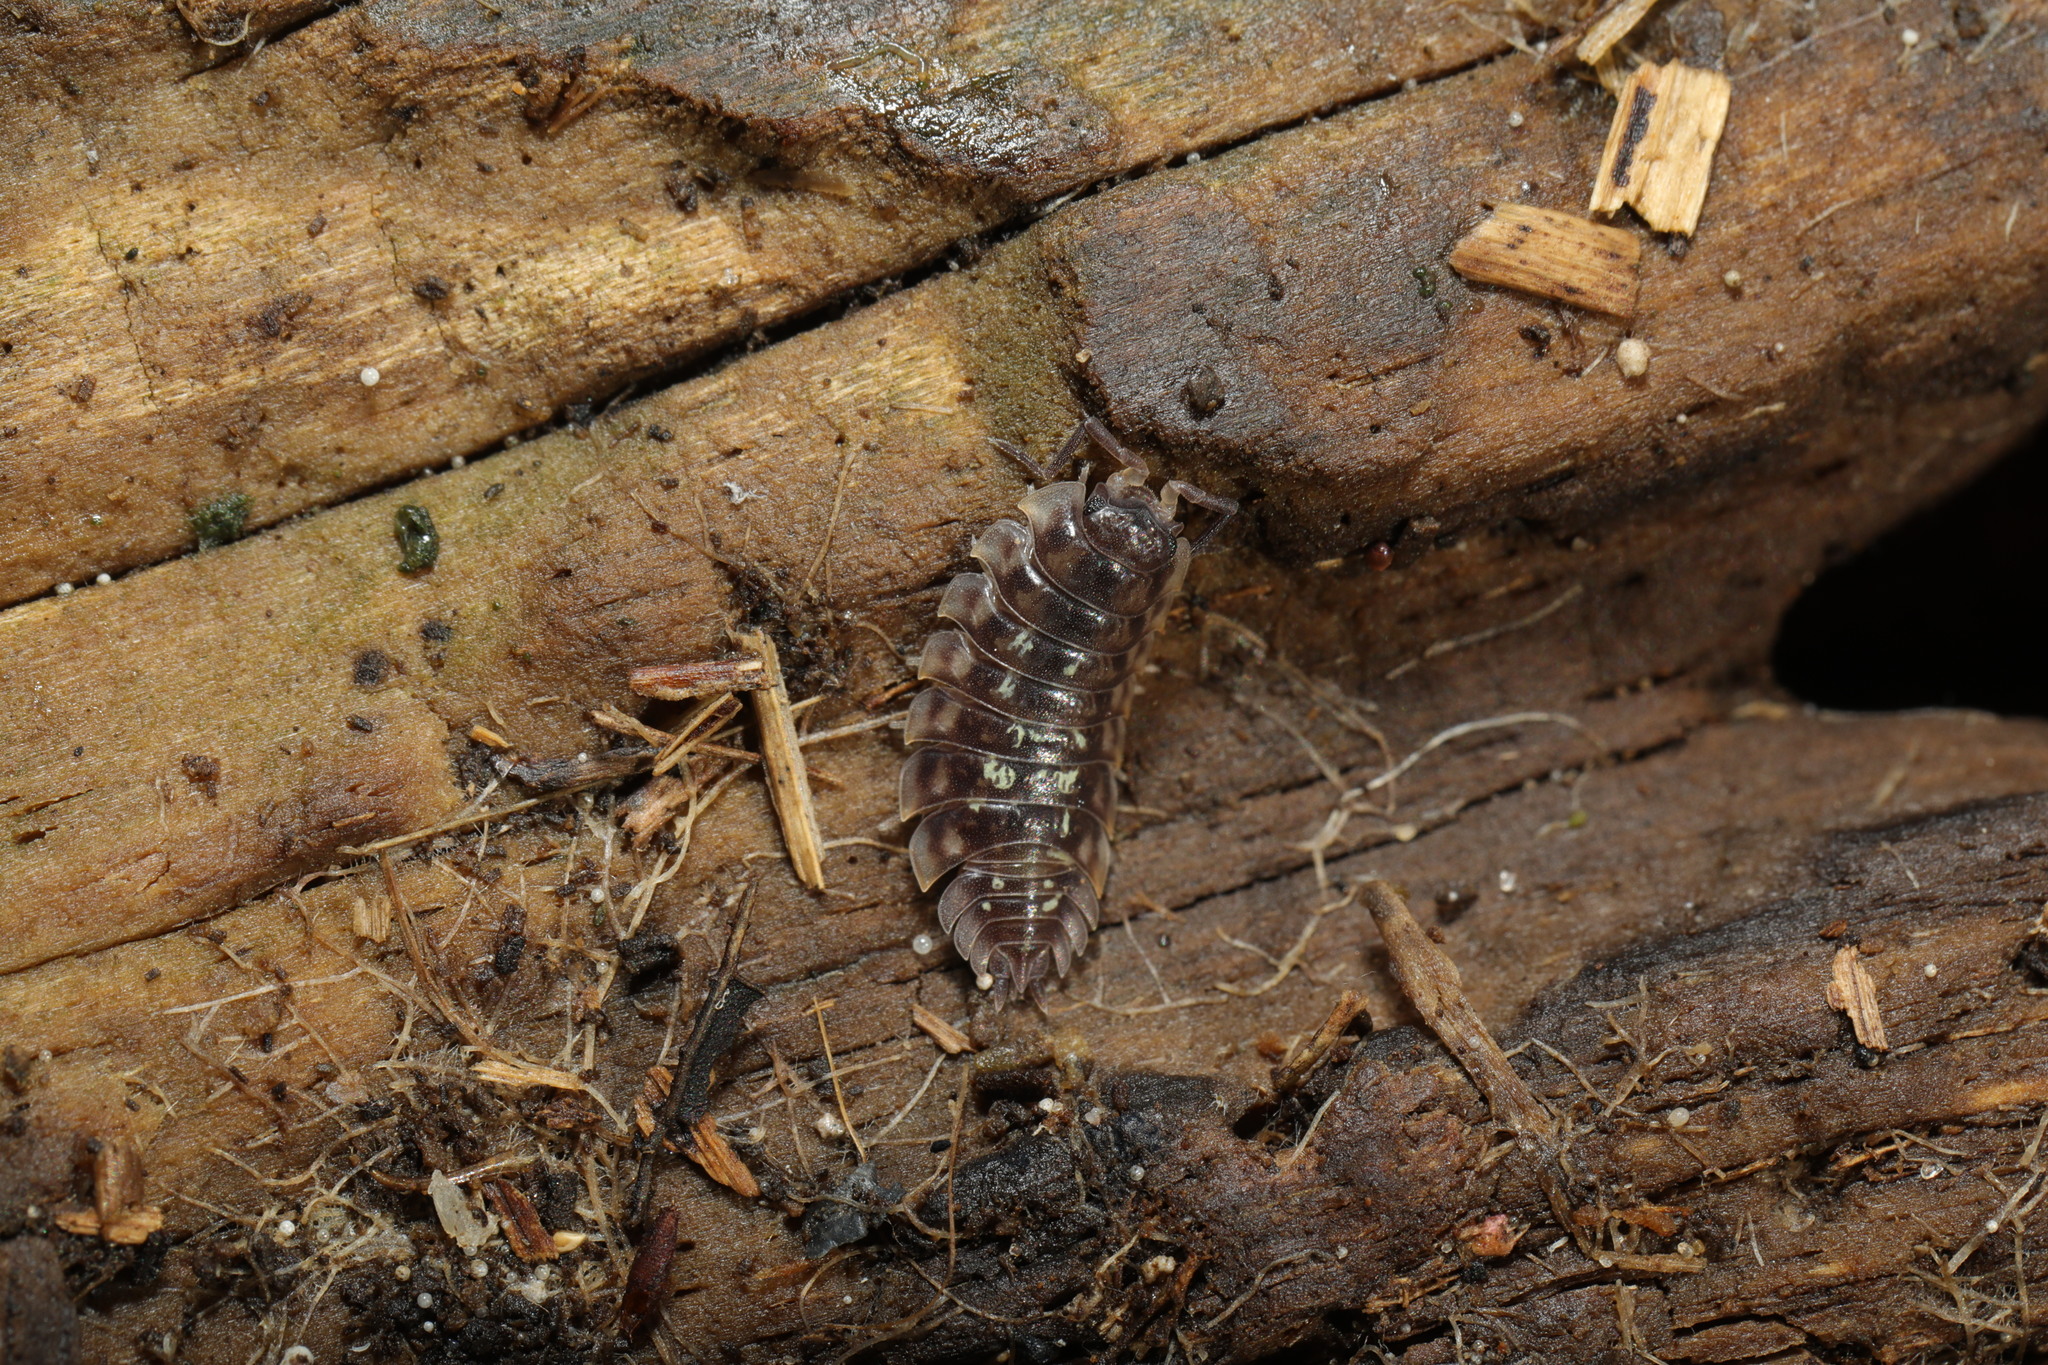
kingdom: Animalia
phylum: Arthropoda
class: Malacostraca
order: Isopoda
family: Oniscidae
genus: Oniscus
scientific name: Oniscus asellus
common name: Common shiny woodlouse
